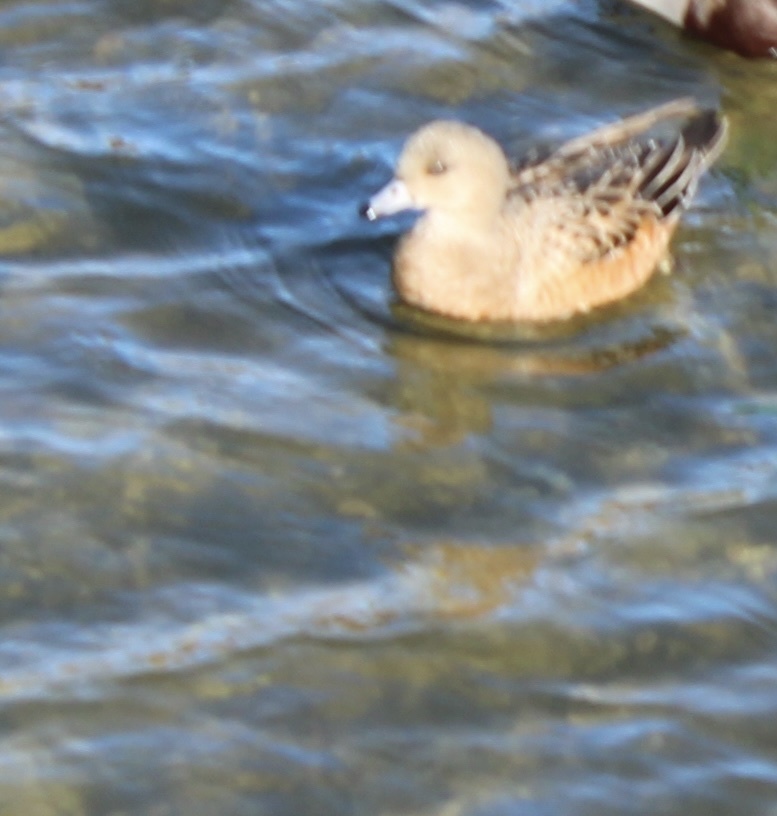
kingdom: Animalia
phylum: Chordata
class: Aves
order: Anseriformes
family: Anatidae
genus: Mareca
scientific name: Mareca americana
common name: American wigeon
